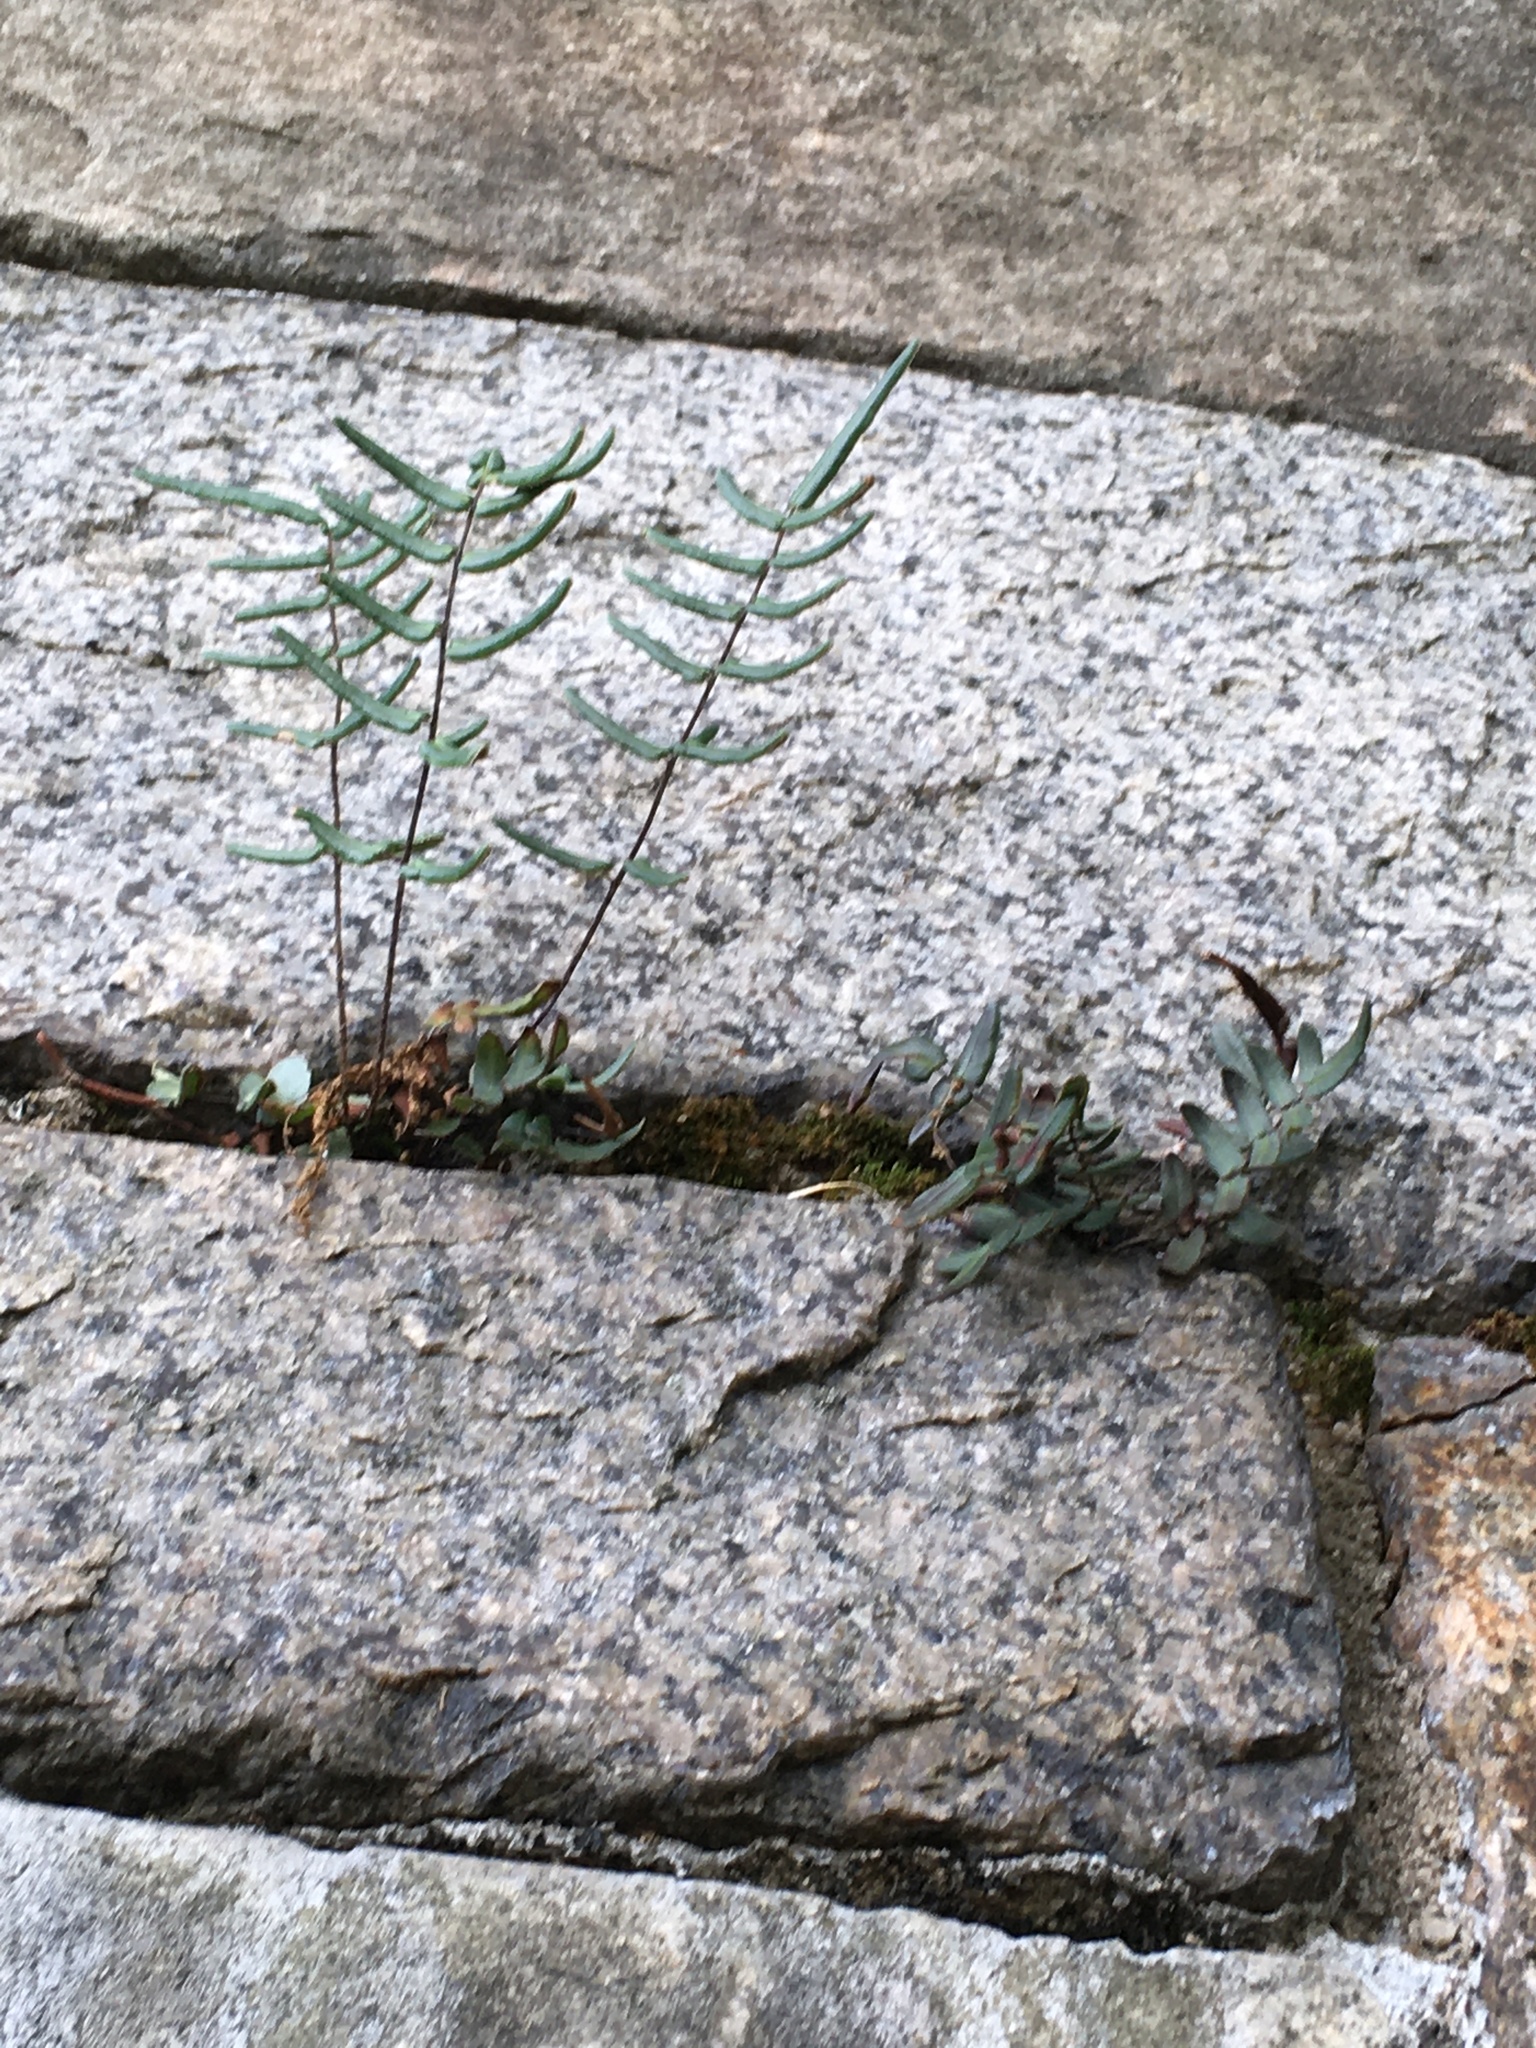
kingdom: Plantae
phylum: Tracheophyta
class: Polypodiopsida
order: Polypodiales
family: Pteridaceae
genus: Pellaea
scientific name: Pellaea atropurpurea
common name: Hairy cliffbrake
